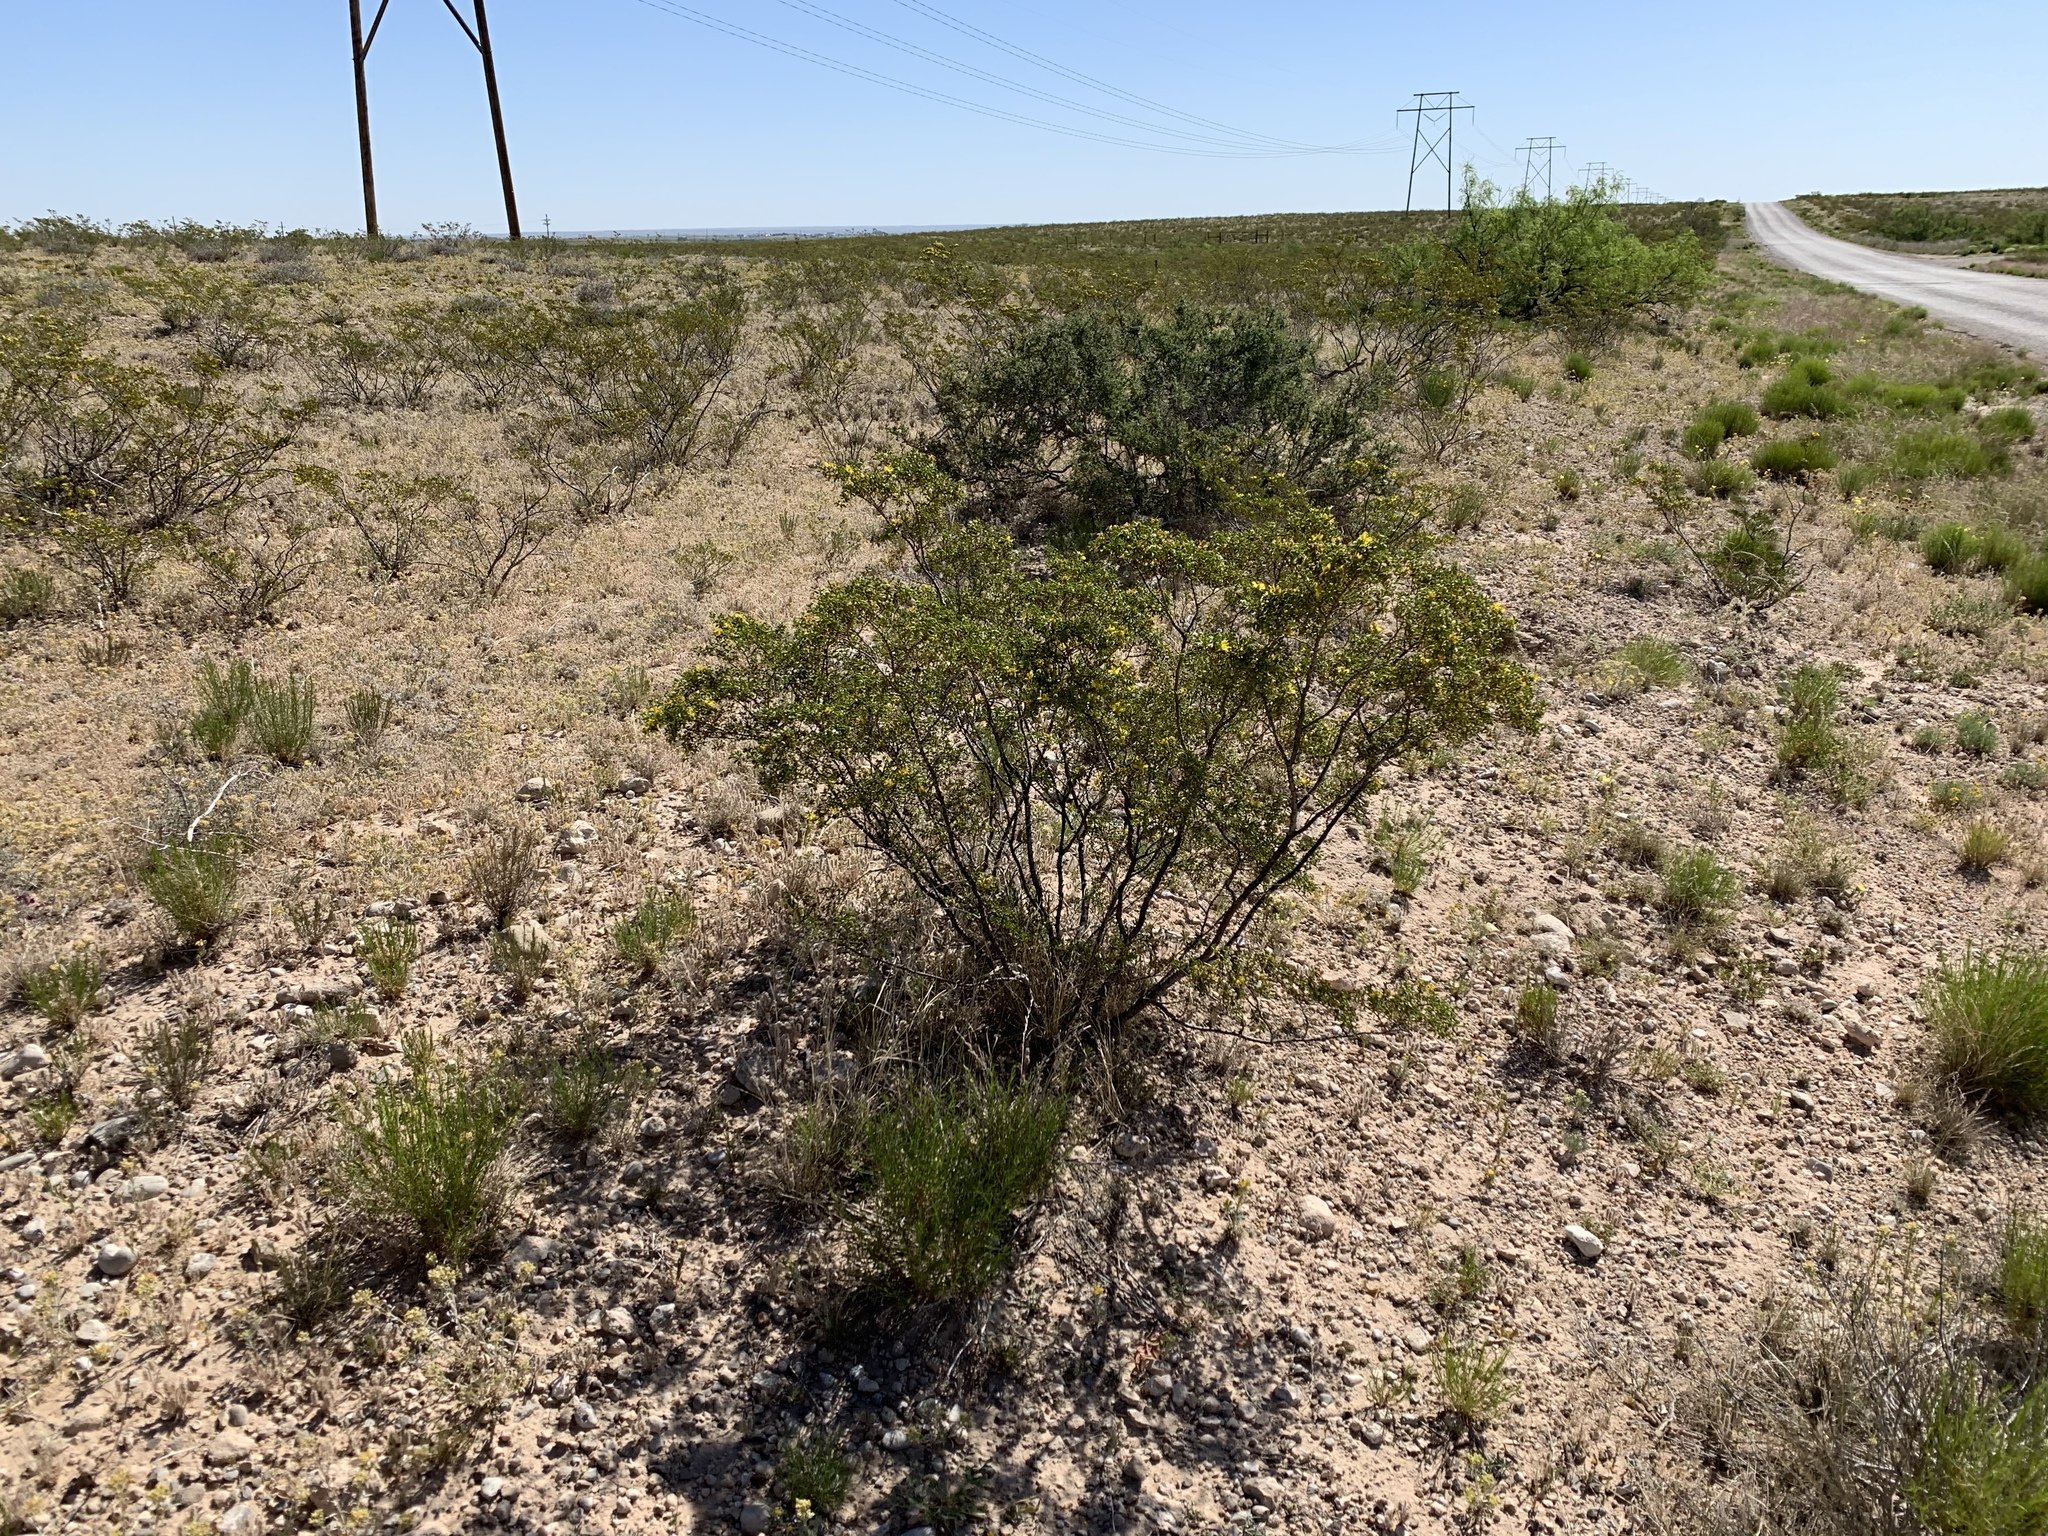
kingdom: Plantae
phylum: Tracheophyta
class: Magnoliopsida
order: Zygophyllales
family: Zygophyllaceae
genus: Larrea
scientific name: Larrea tridentata
